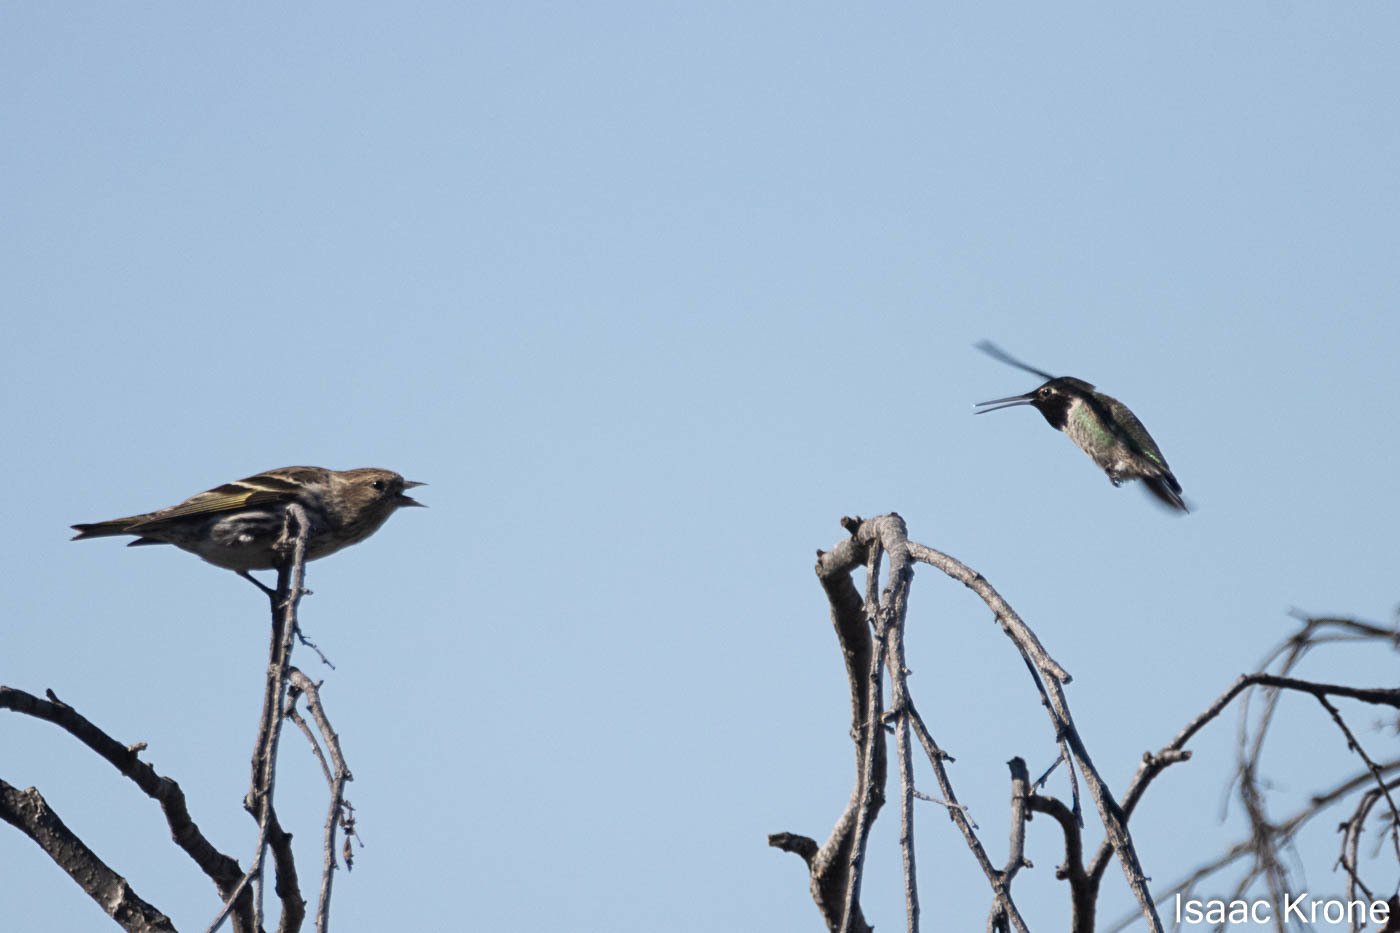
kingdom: Animalia
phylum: Chordata
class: Aves
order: Passeriformes
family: Fringillidae
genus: Spinus
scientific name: Spinus pinus
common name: Pine siskin
